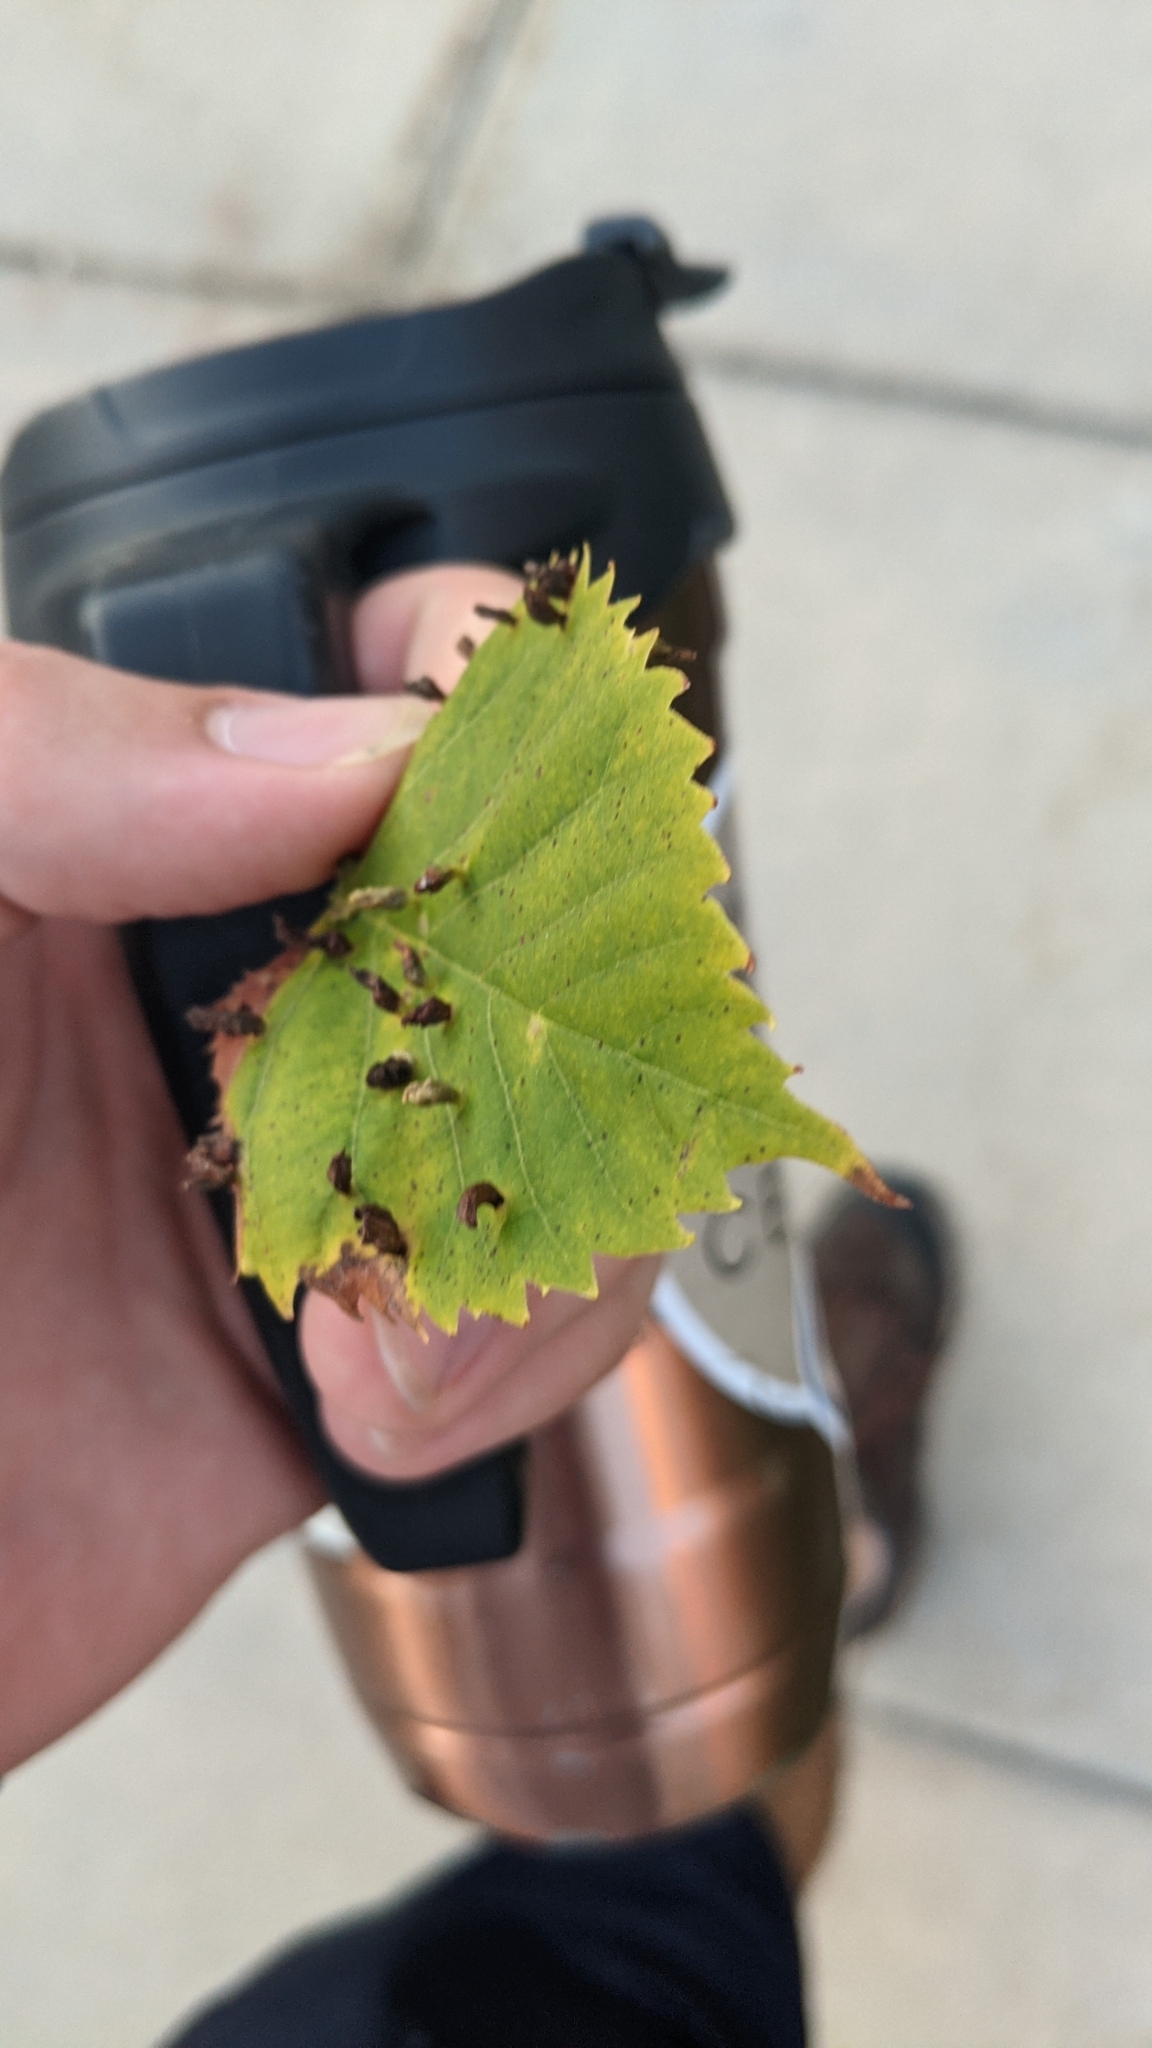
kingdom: Animalia
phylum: Arthropoda
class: Arachnida
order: Trombidiformes
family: Phytoptidae
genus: Phytoptus
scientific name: Phytoptus abnormis
